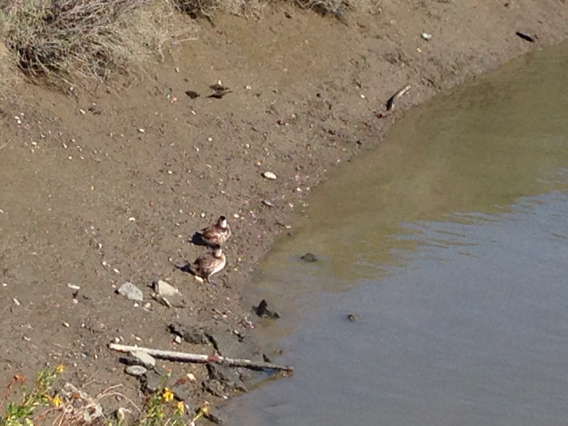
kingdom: Animalia
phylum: Chordata
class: Aves
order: Anseriformes
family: Anatidae
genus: Oxyura
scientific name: Oxyura jamaicensis
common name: Ruddy duck
